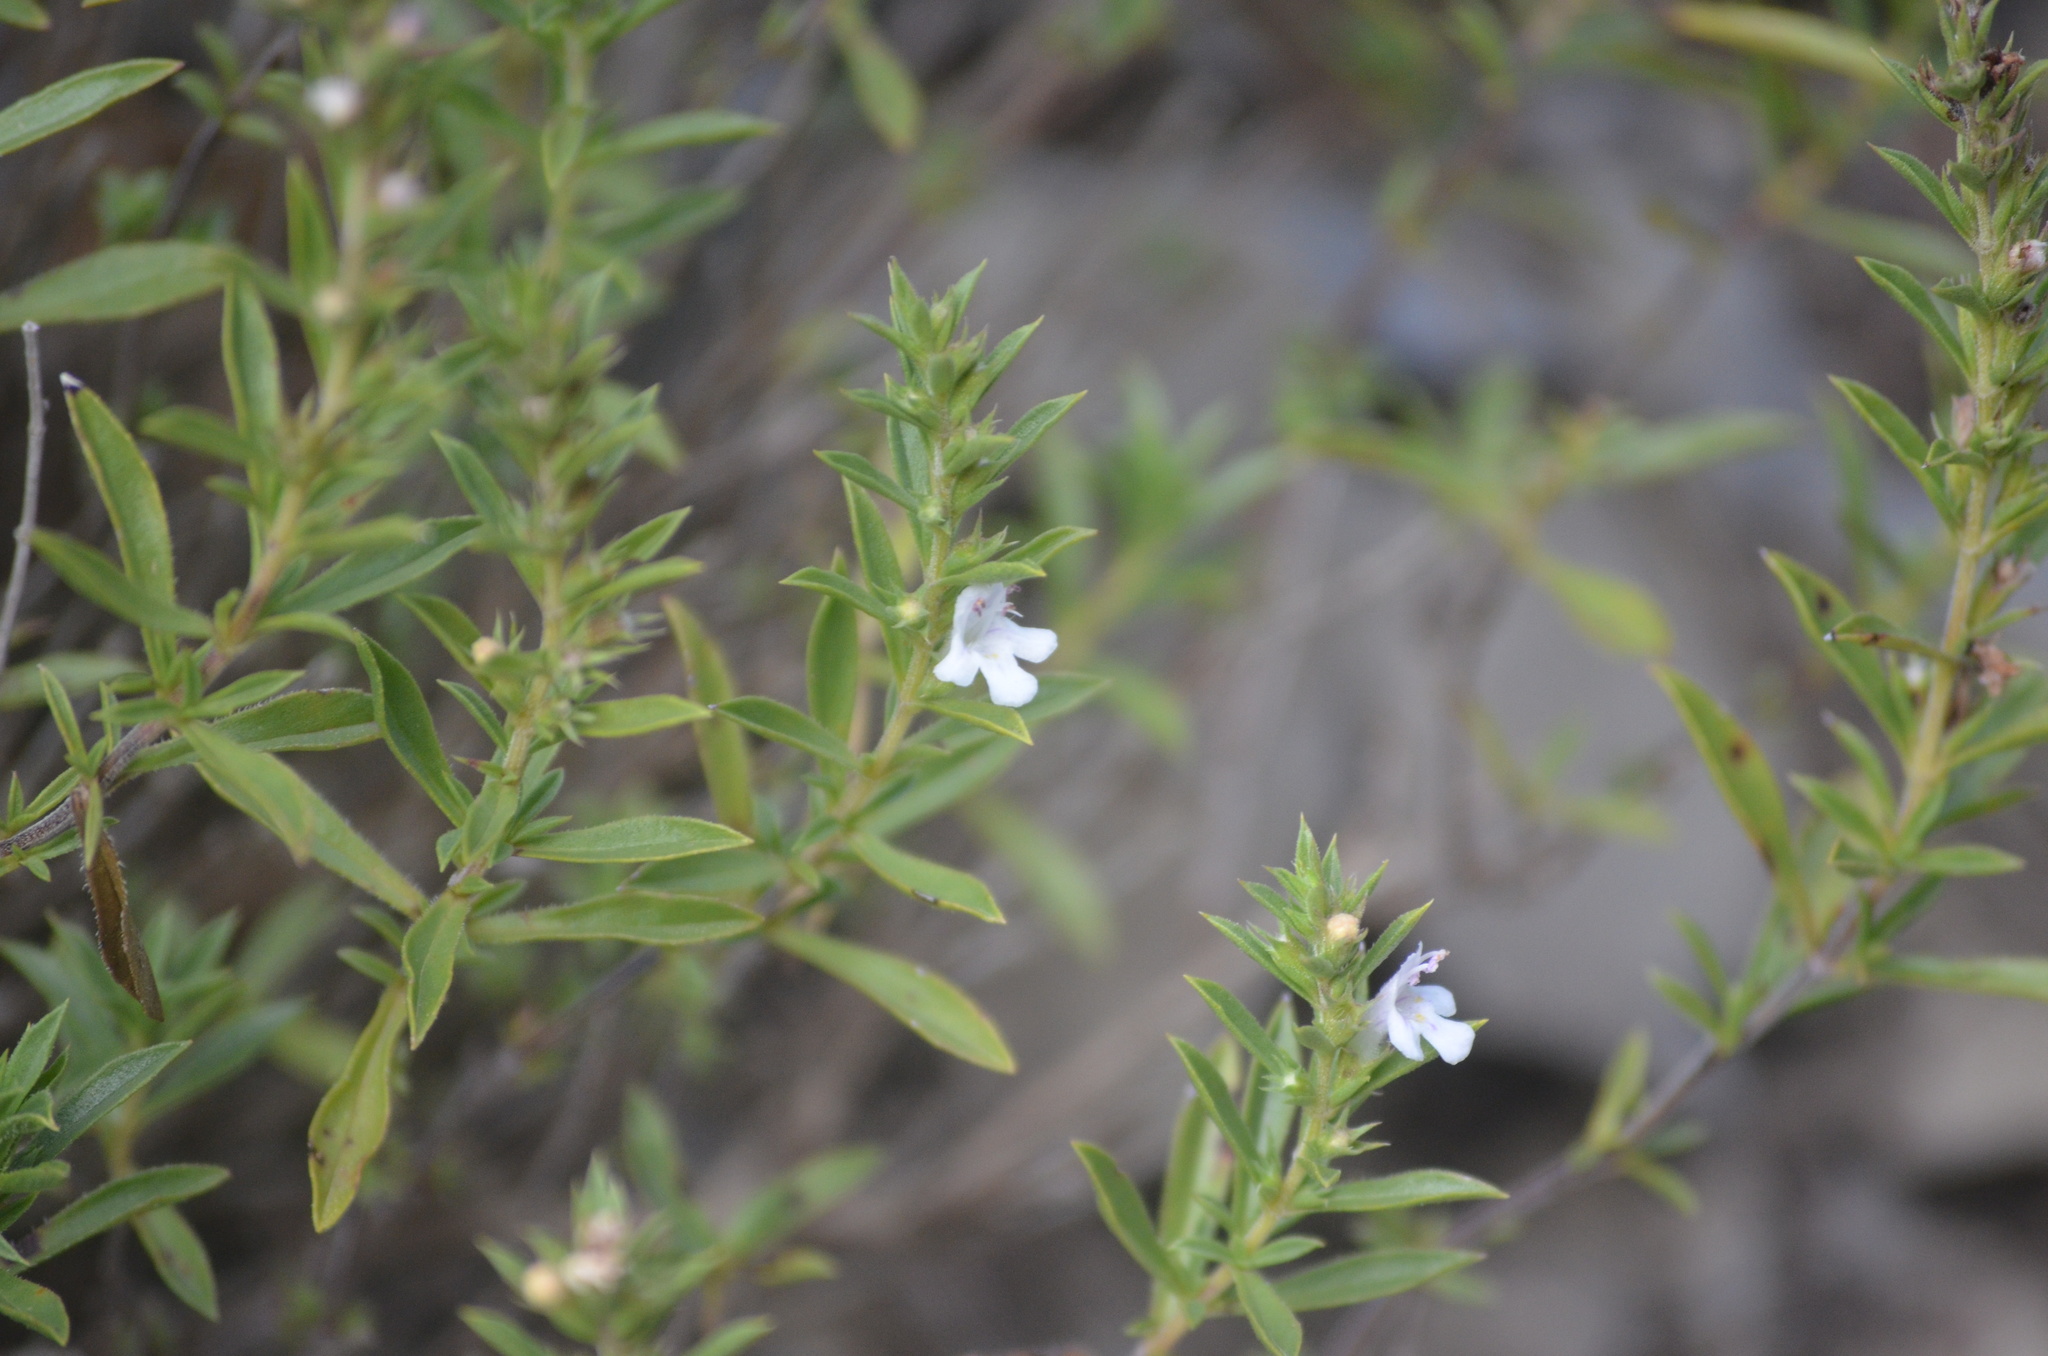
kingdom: Plantae
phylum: Tracheophyta
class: Magnoliopsida
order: Lamiales
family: Lamiaceae
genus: Satureja
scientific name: Satureja montana
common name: Winter savory
